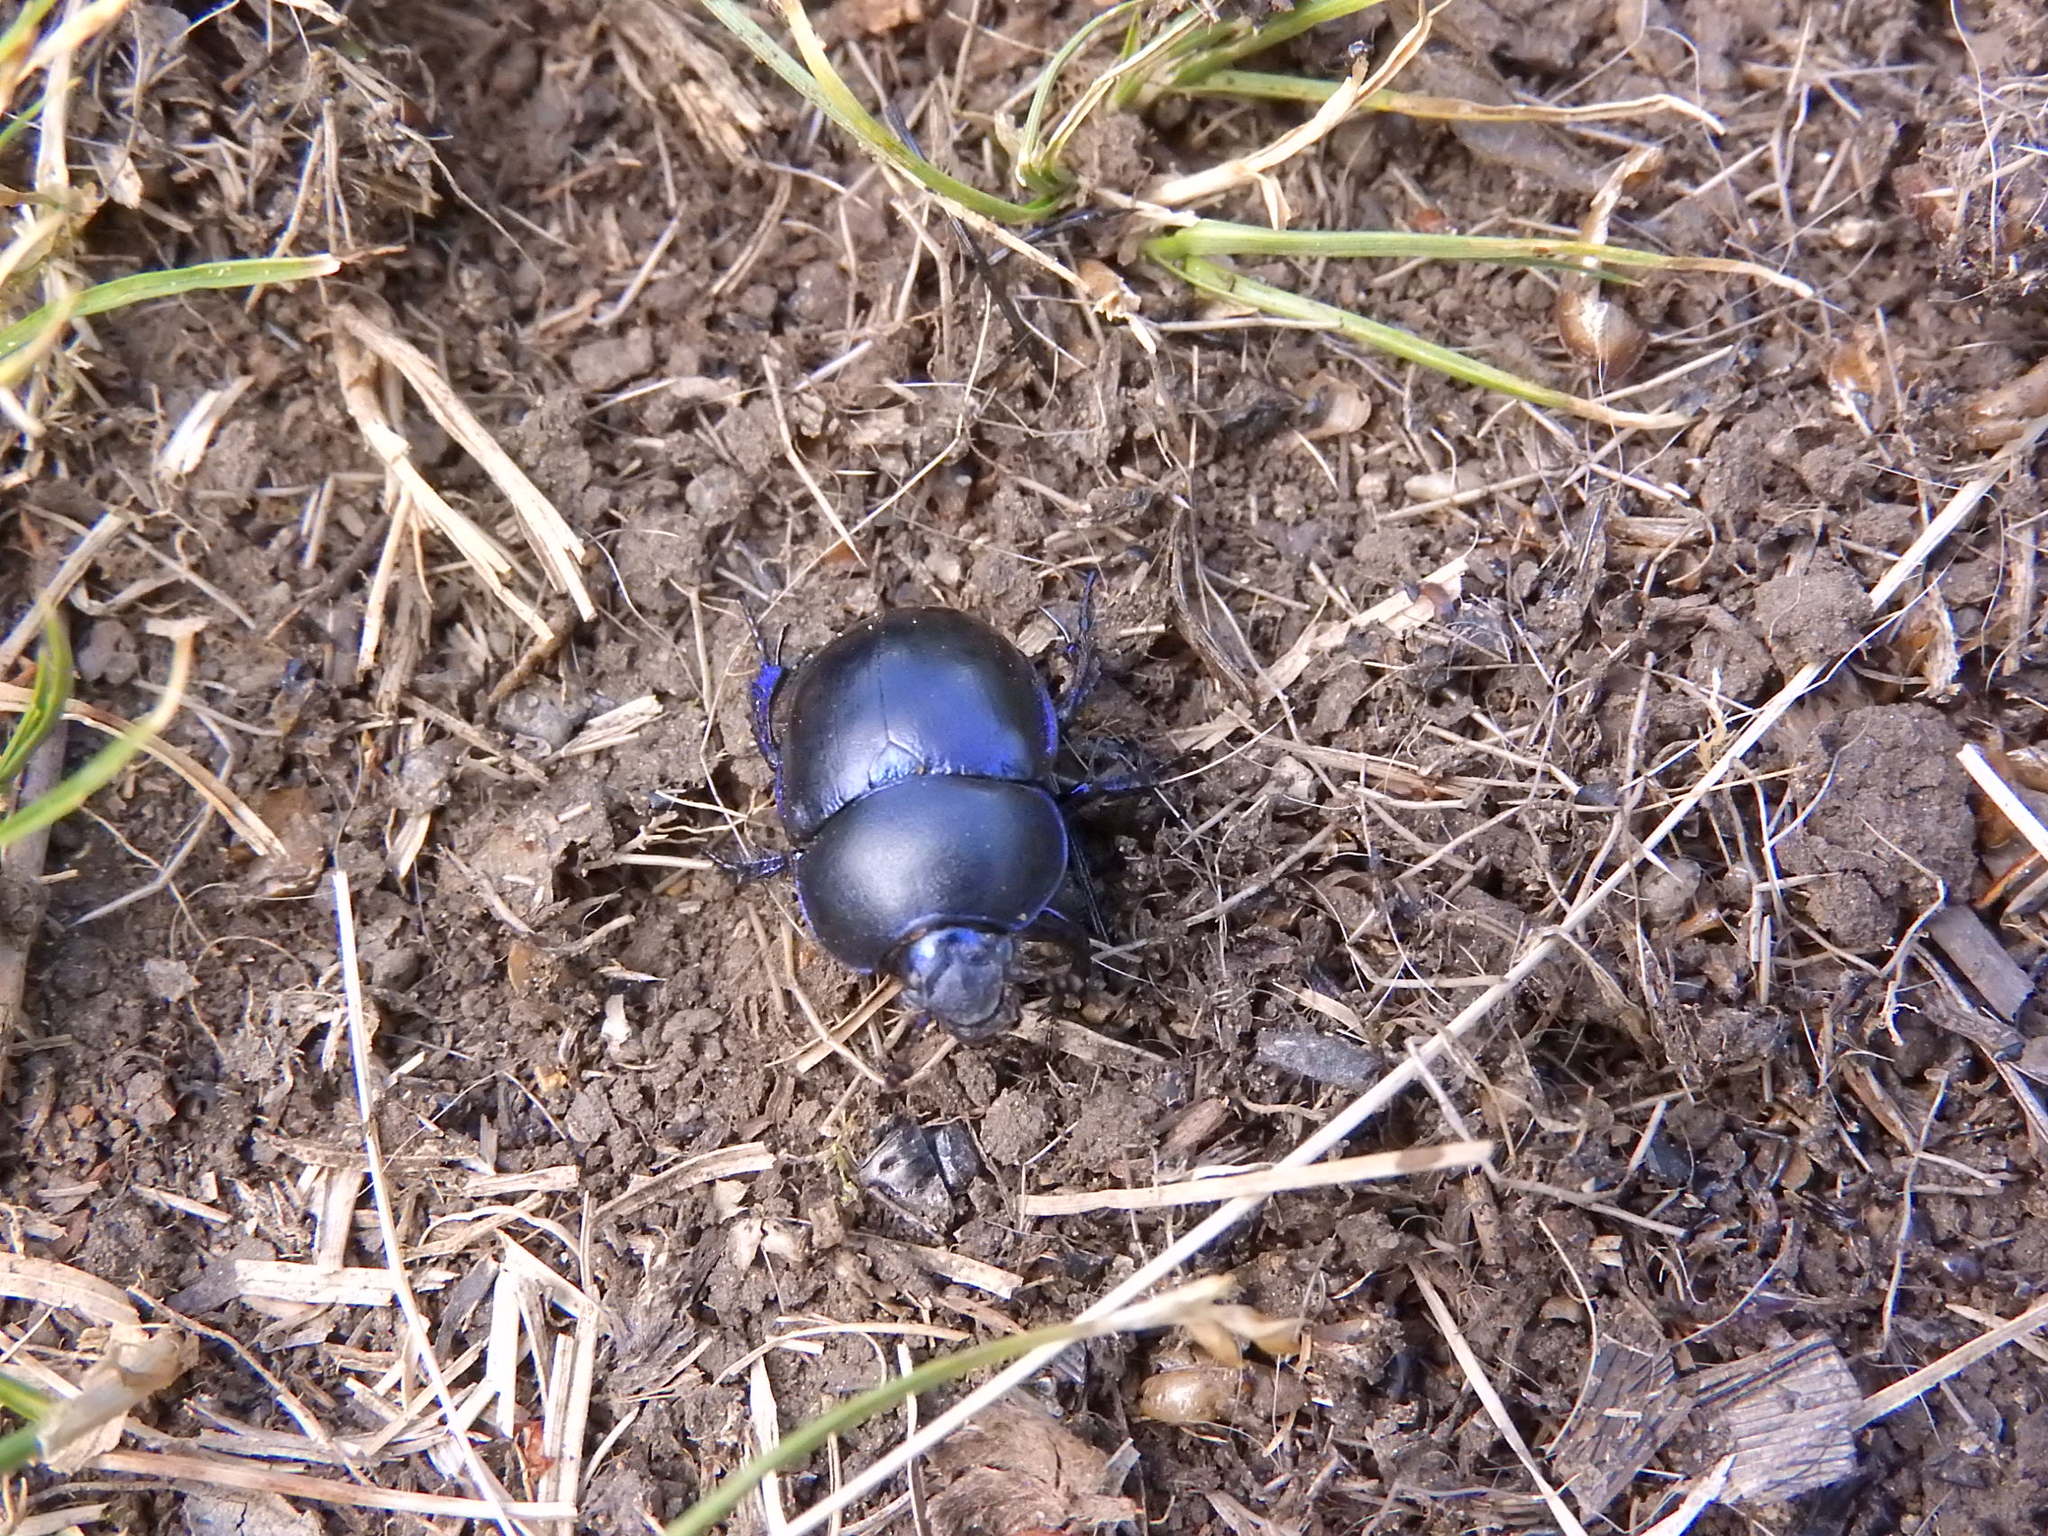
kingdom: Animalia
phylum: Arthropoda
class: Insecta
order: Coleoptera
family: Geotrupidae
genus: Trypocopris
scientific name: Trypocopris vernalis
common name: Spring dumbledor
